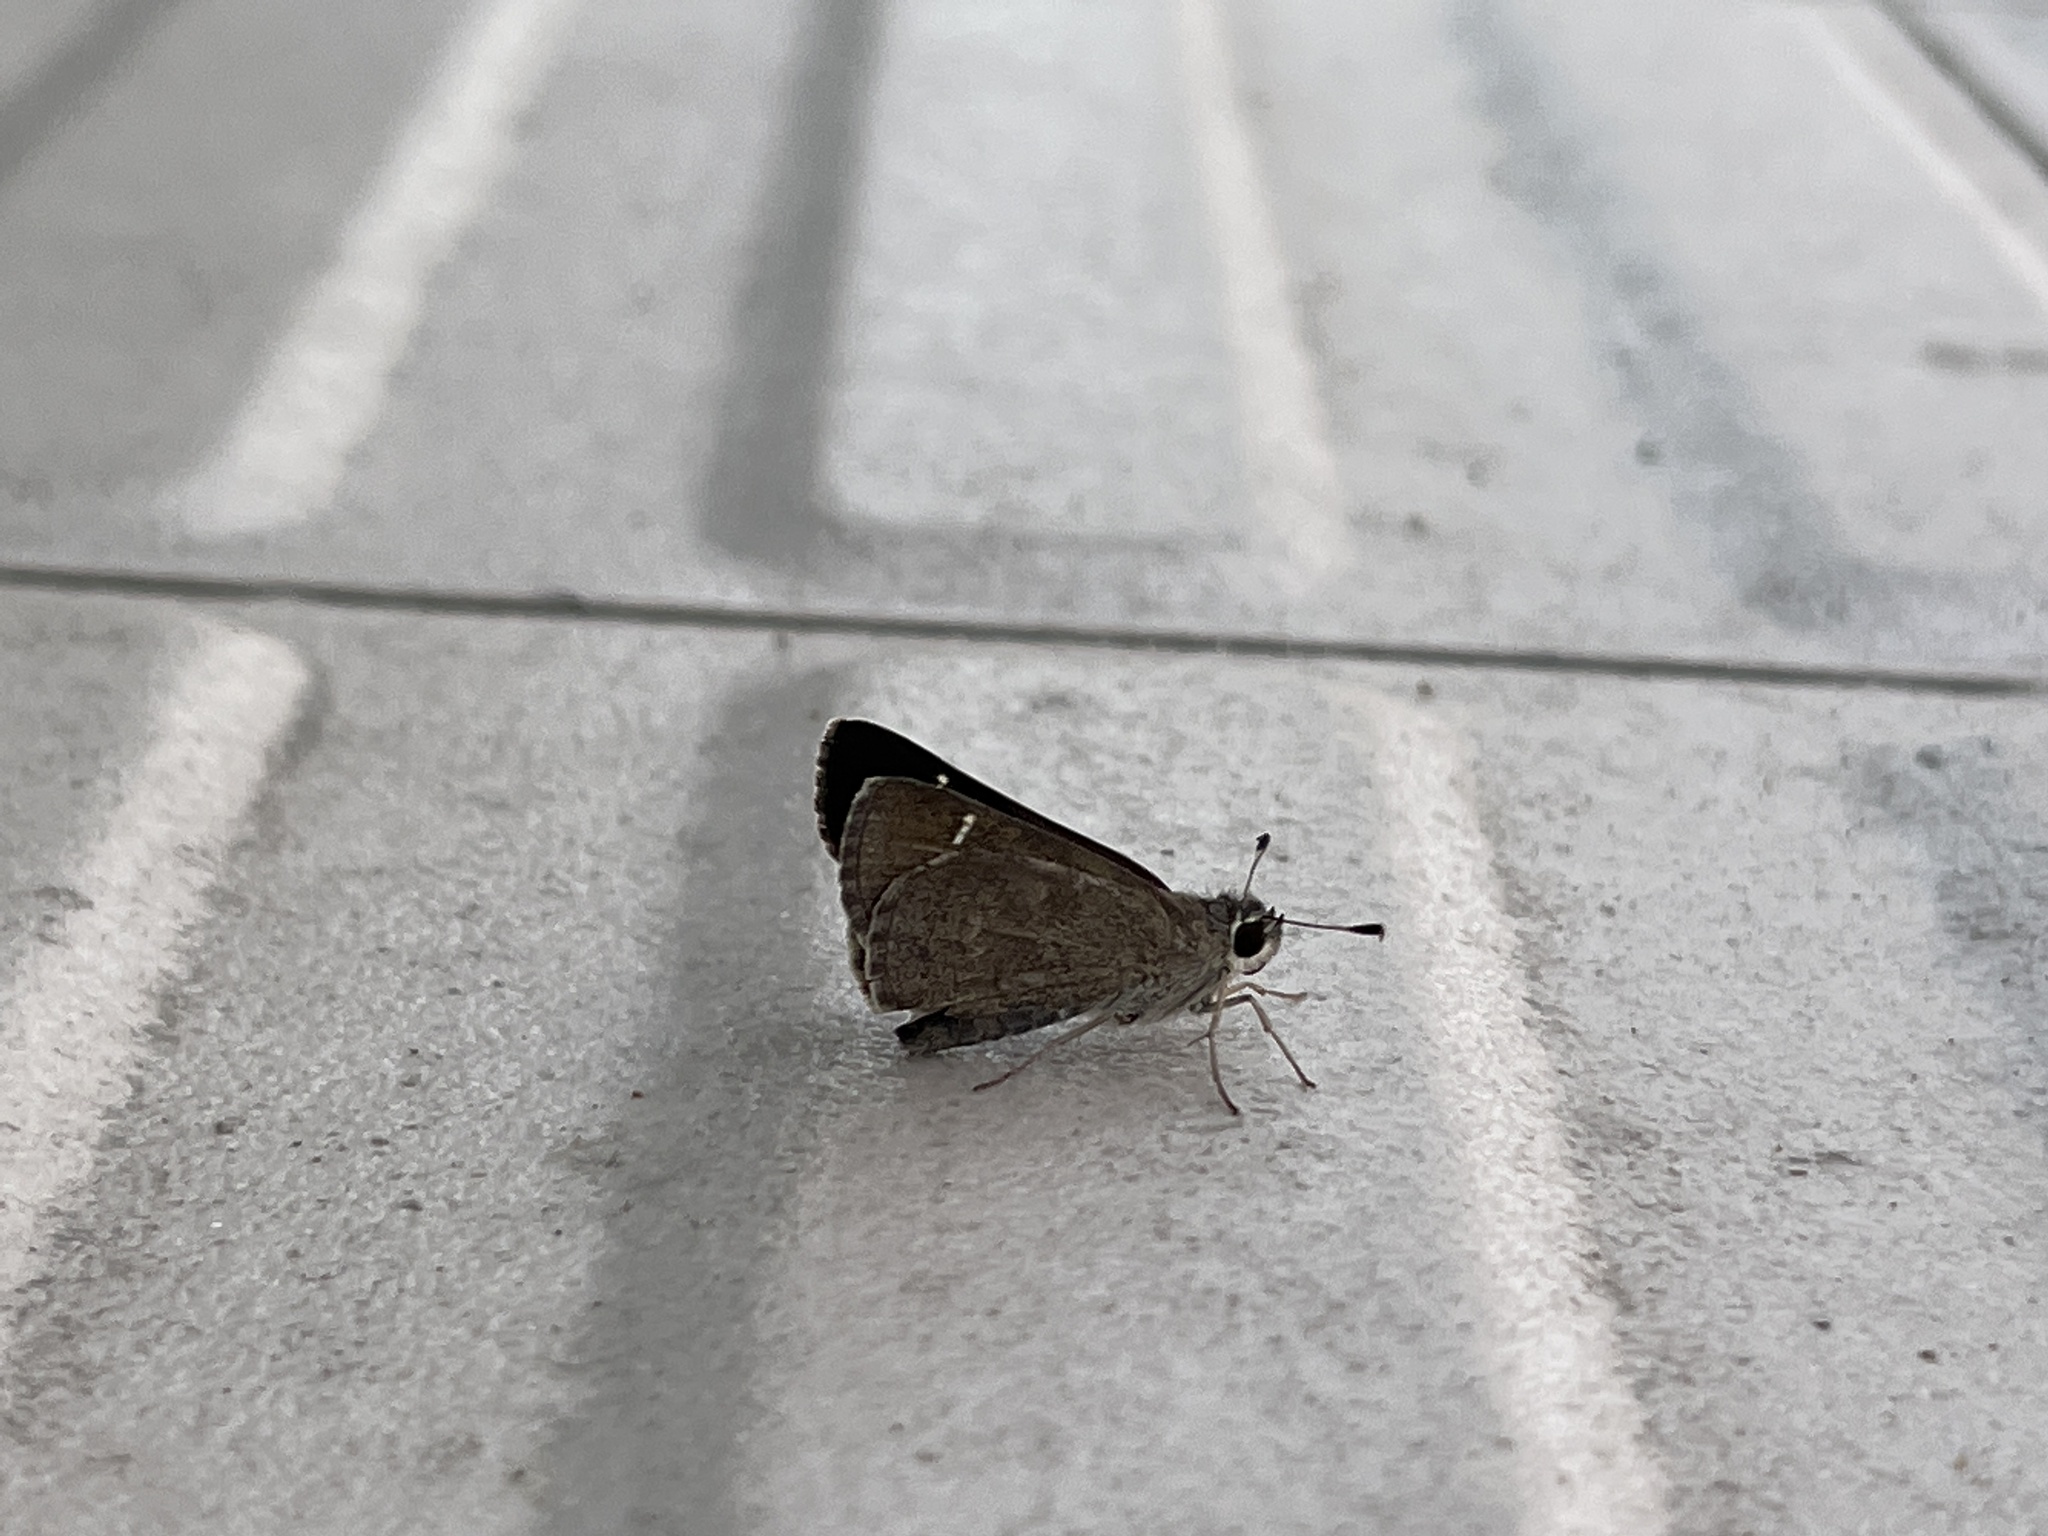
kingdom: Animalia
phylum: Arthropoda
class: Insecta
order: Lepidoptera
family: Hesperiidae
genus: Lerodea
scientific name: Lerodea arabus
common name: Violet-clouded skipper
